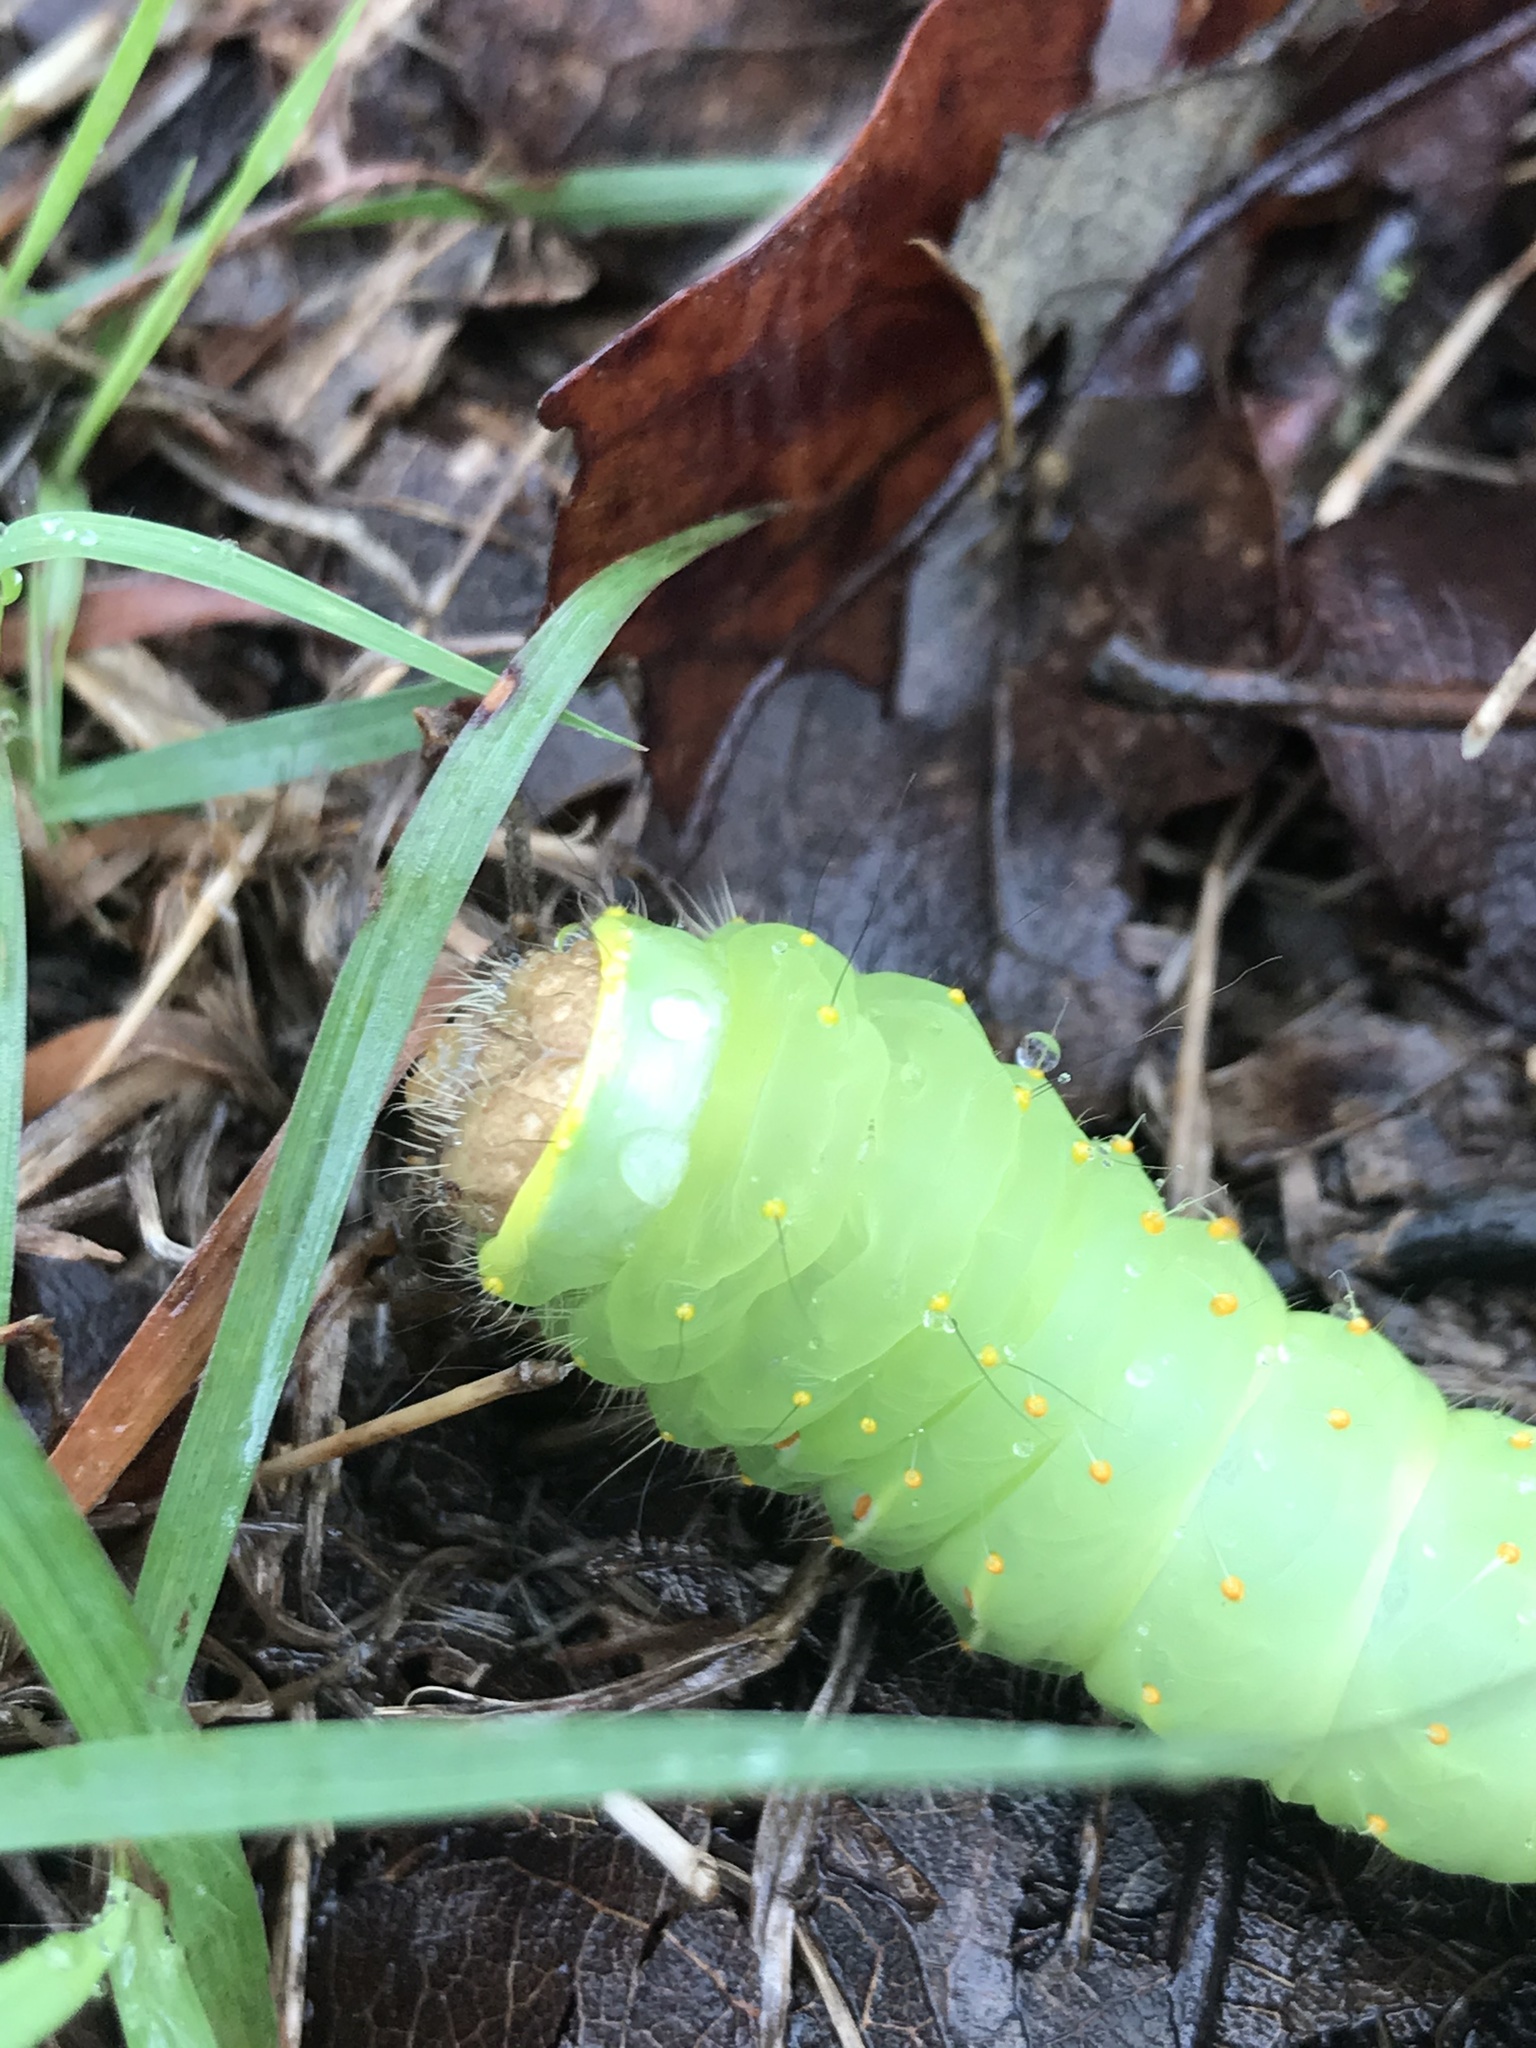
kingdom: Animalia
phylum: Arthropoda
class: Insecta
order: Lepidoptera
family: Saturniidae
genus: Antheraea
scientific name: Antheraea polyphemus
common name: Polyphemus moth
